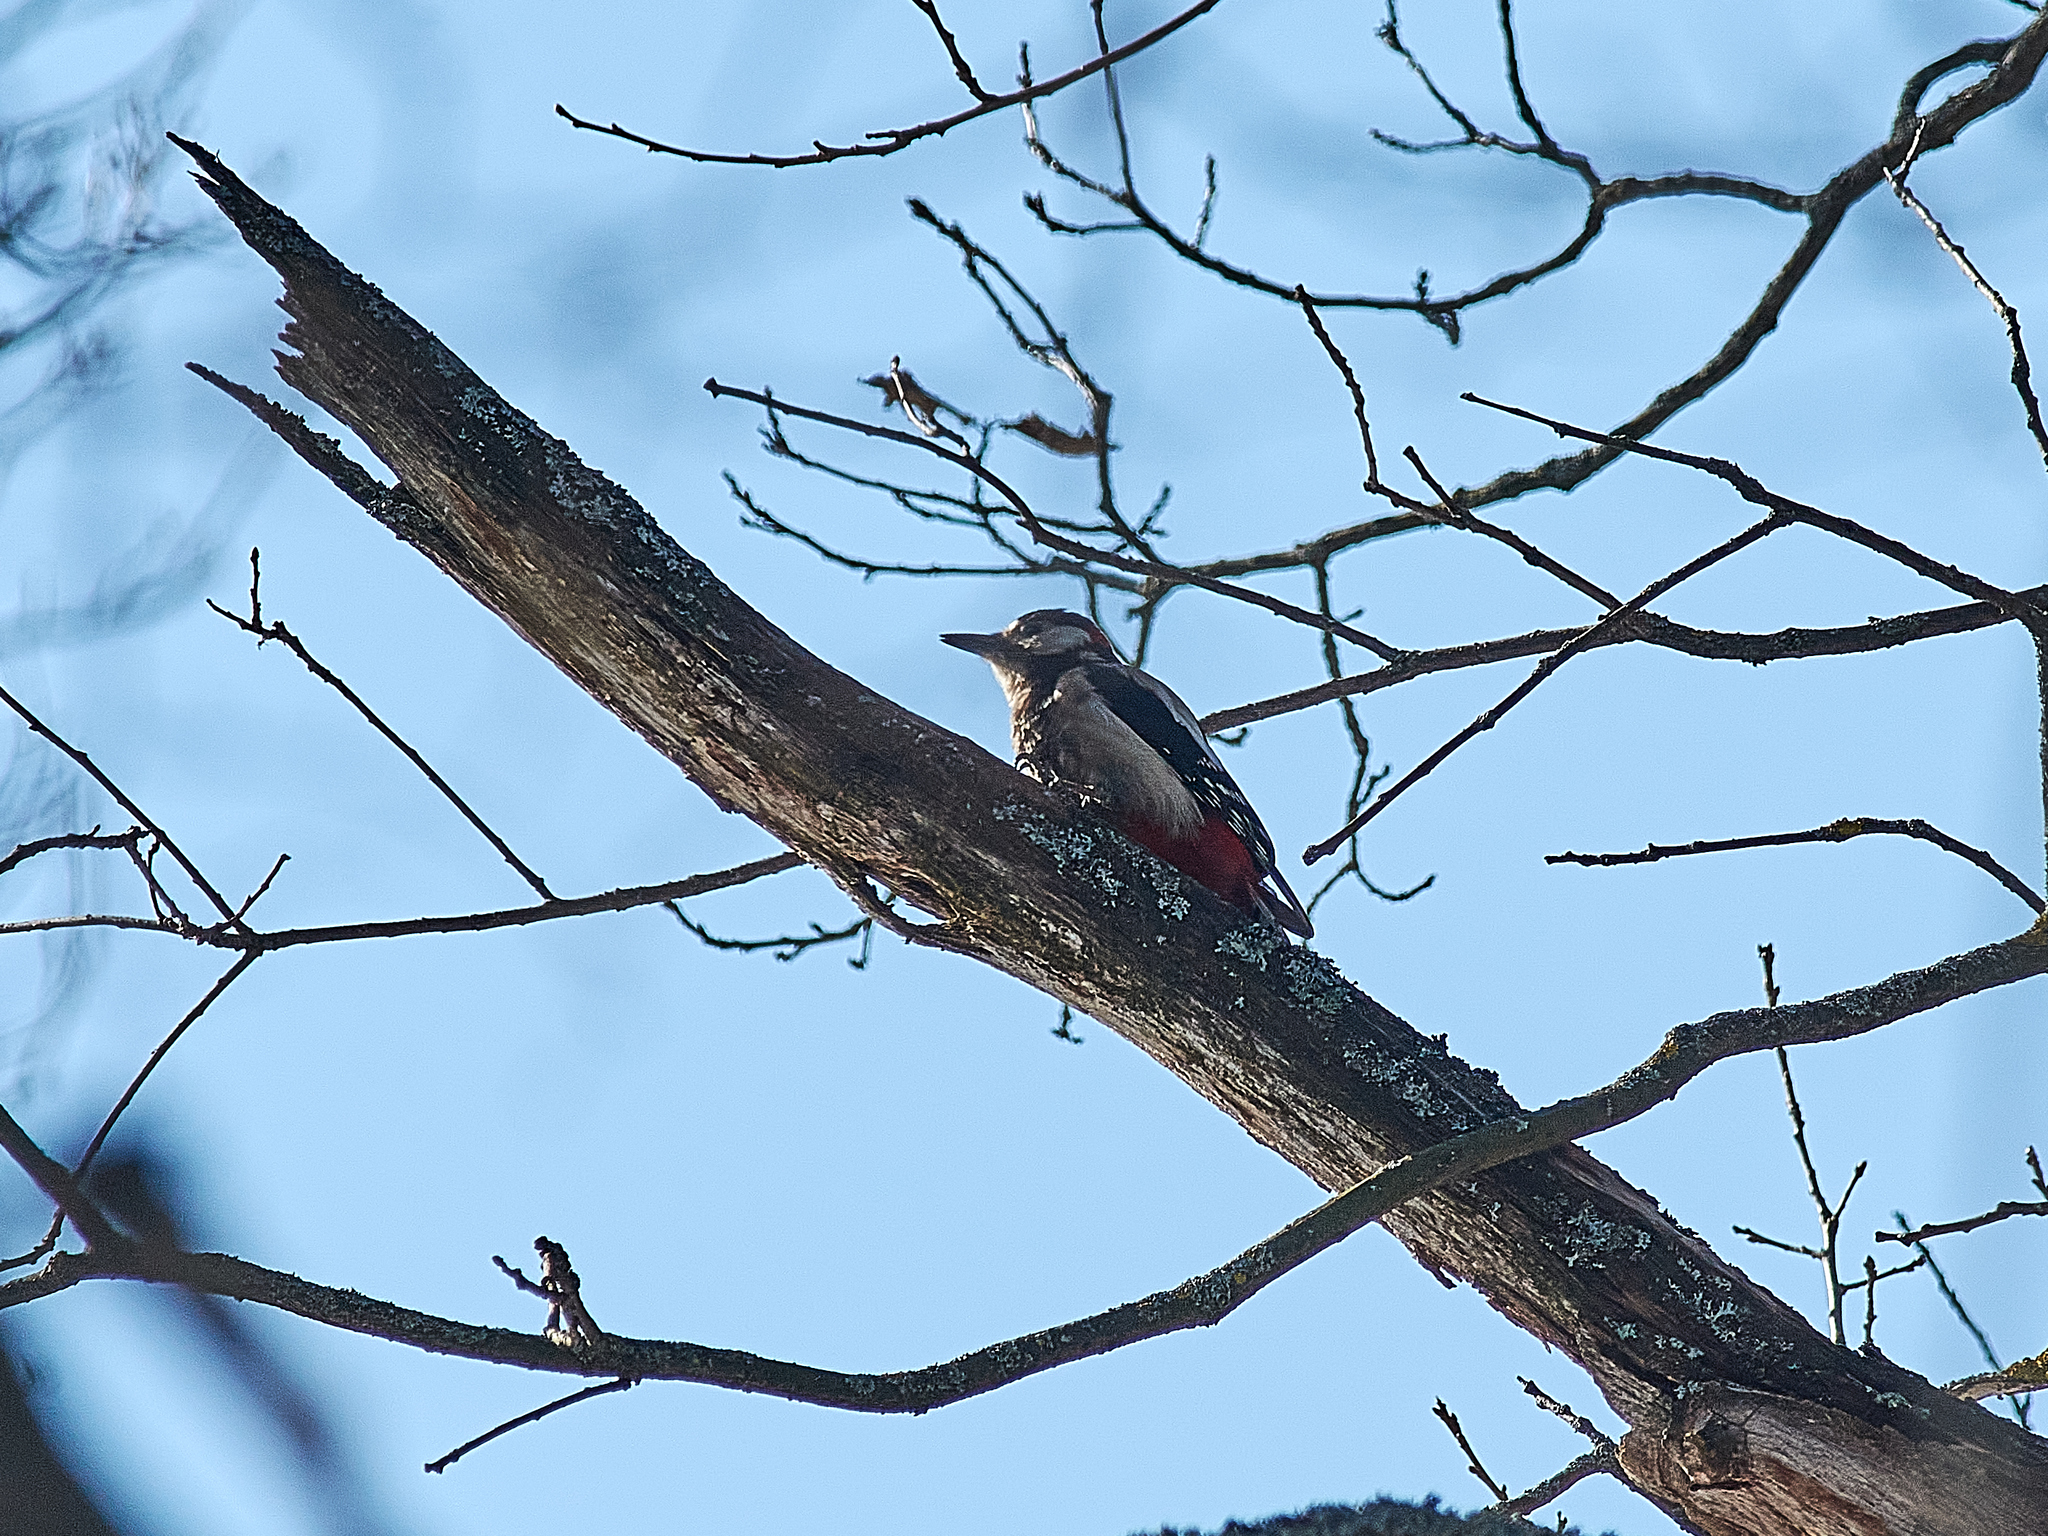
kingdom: Animalia
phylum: Chordata
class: Aves
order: Piciformes
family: Picidae
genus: Dendrocopos
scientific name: Dendrocopos major
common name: Great spotted woodpecker
